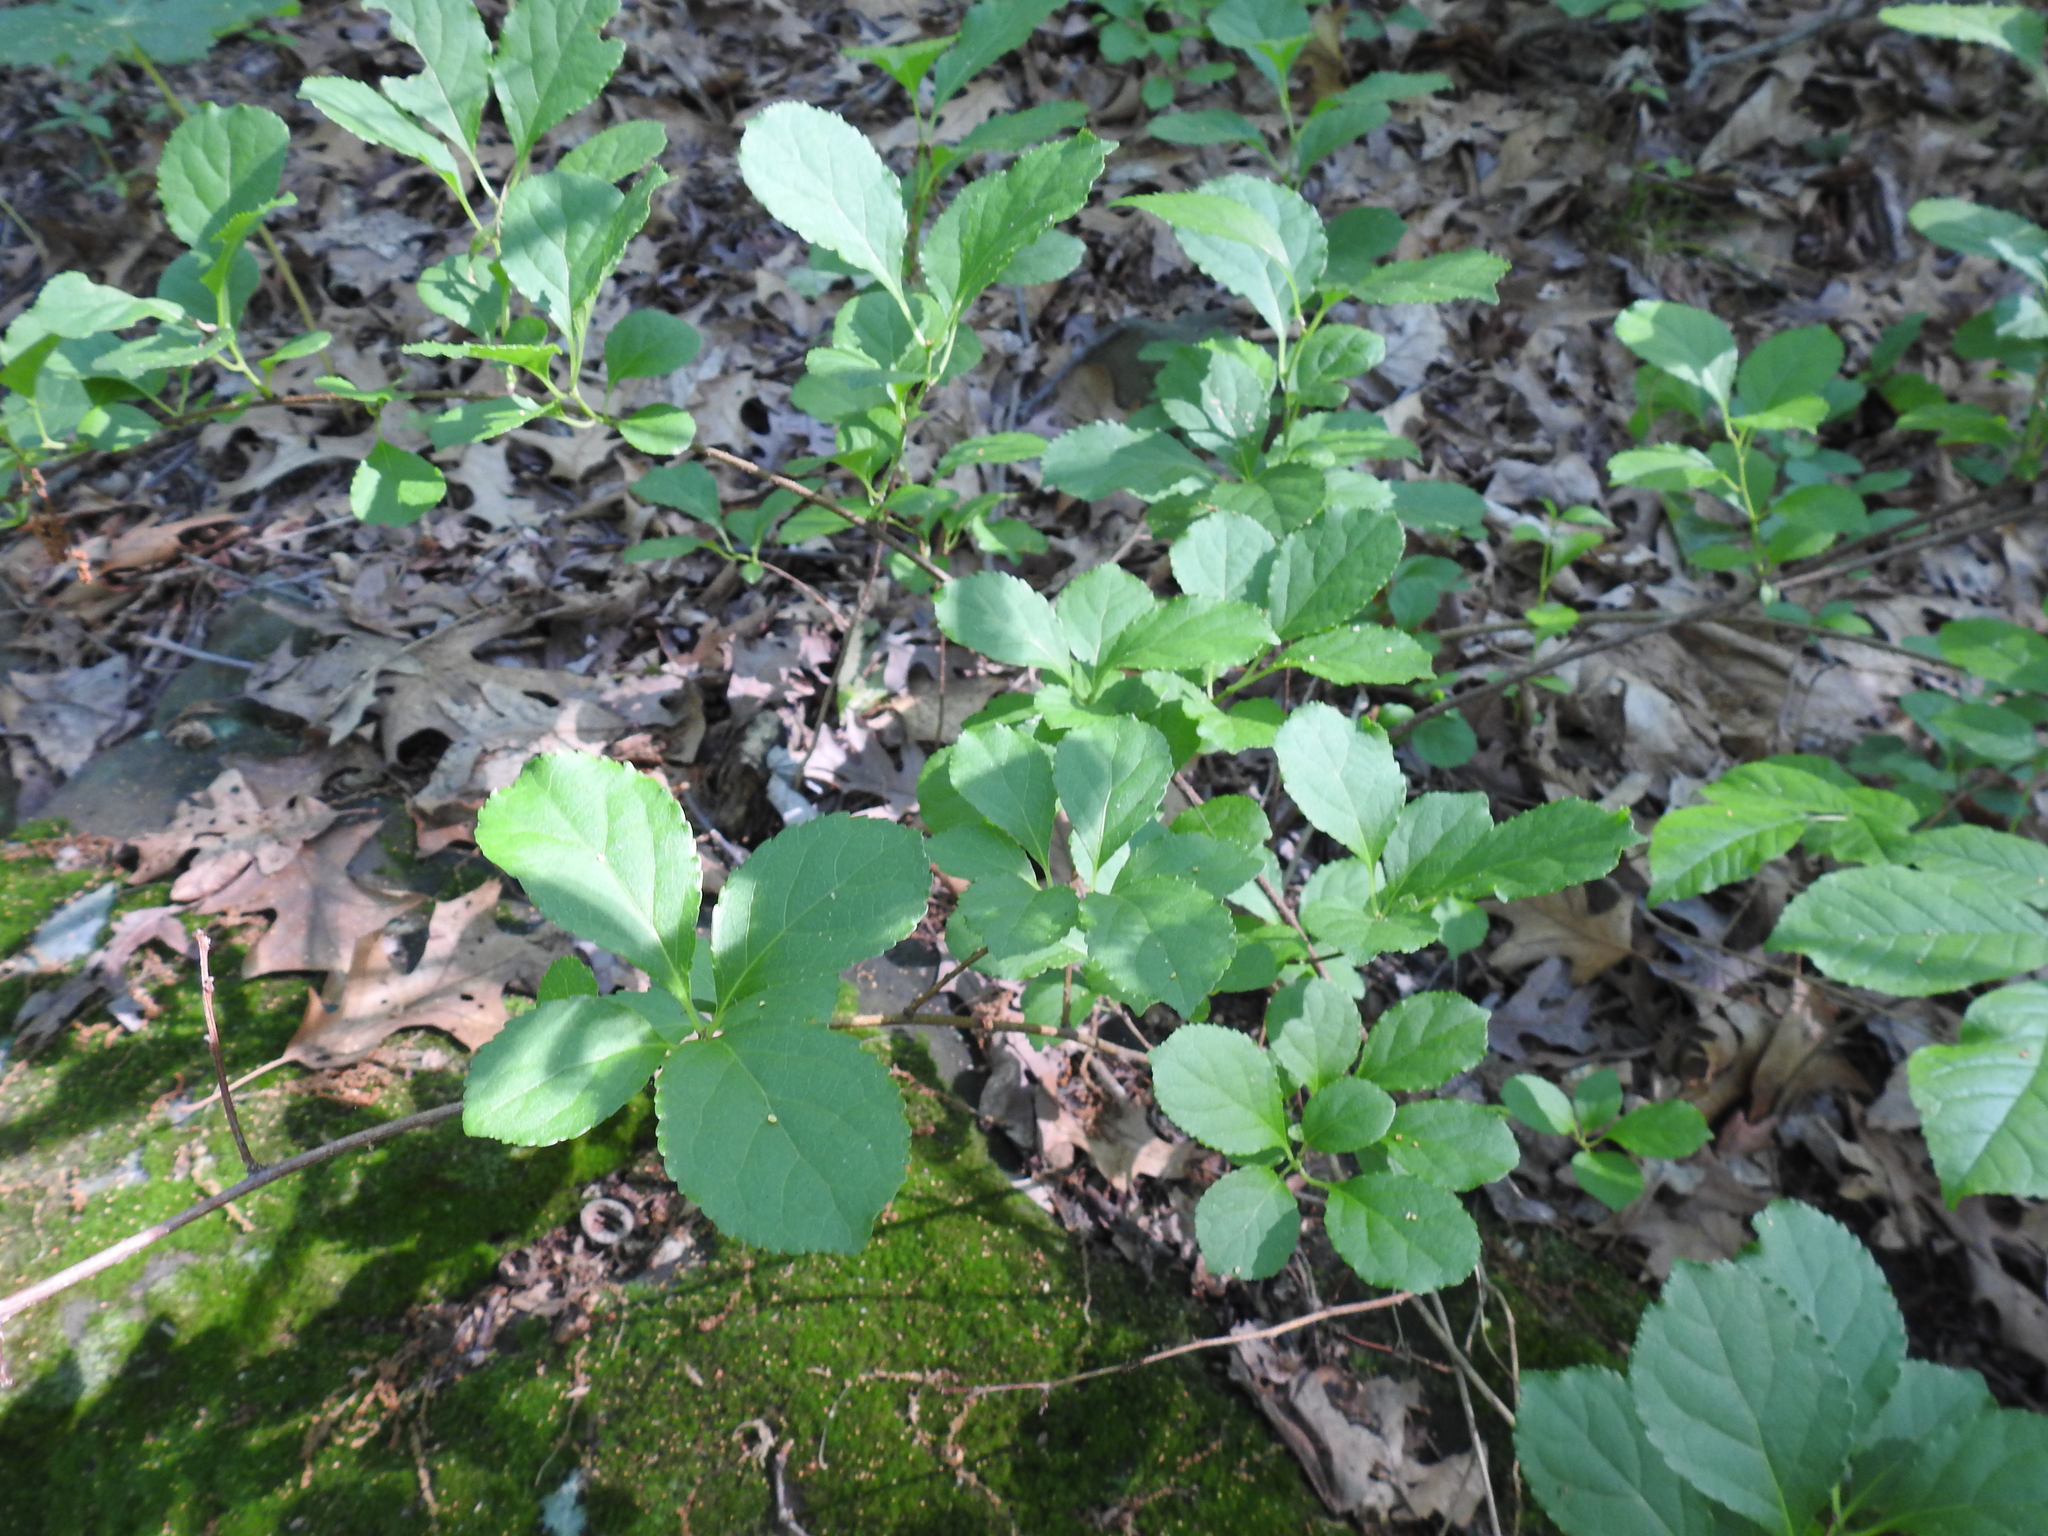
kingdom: Plantae
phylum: Tracheophyta
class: Magnoliopsida
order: Celastrales
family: Celastraceae
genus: Celastrus
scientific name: Celastrus orbiculatus
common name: Oriental bittersweet
